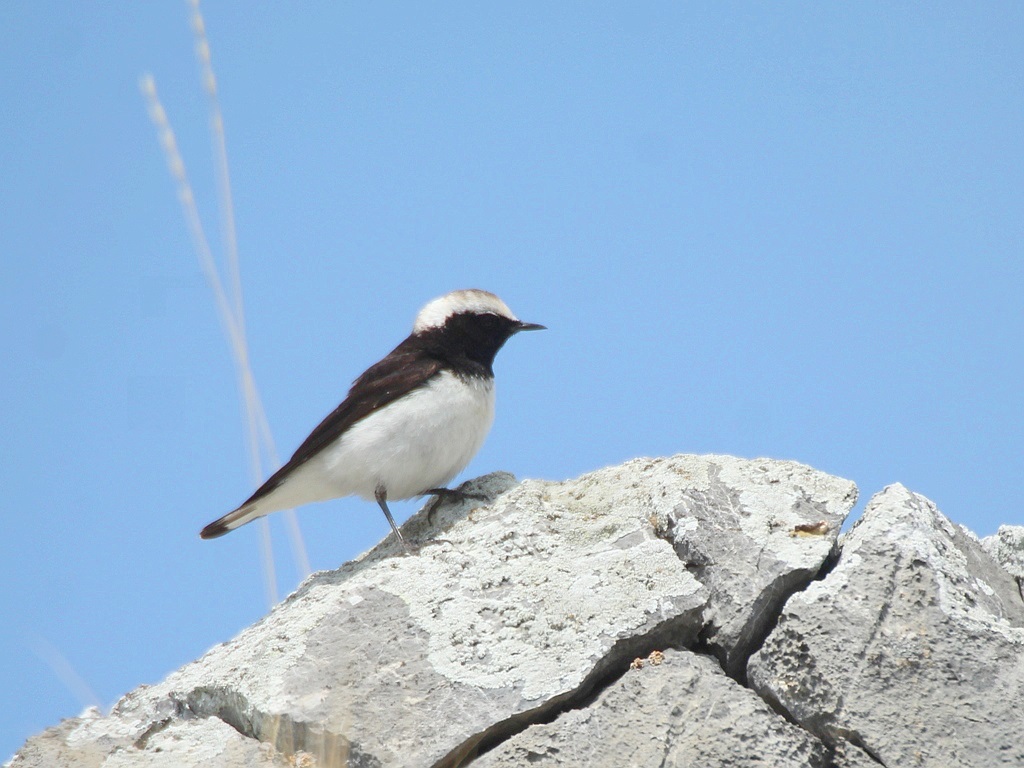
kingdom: Animalia
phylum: Chordata
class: Aves
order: Passeriformes
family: Muscicapidae
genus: Oenanthe
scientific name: Oenanthe pleschanka
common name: Pied wheatear
